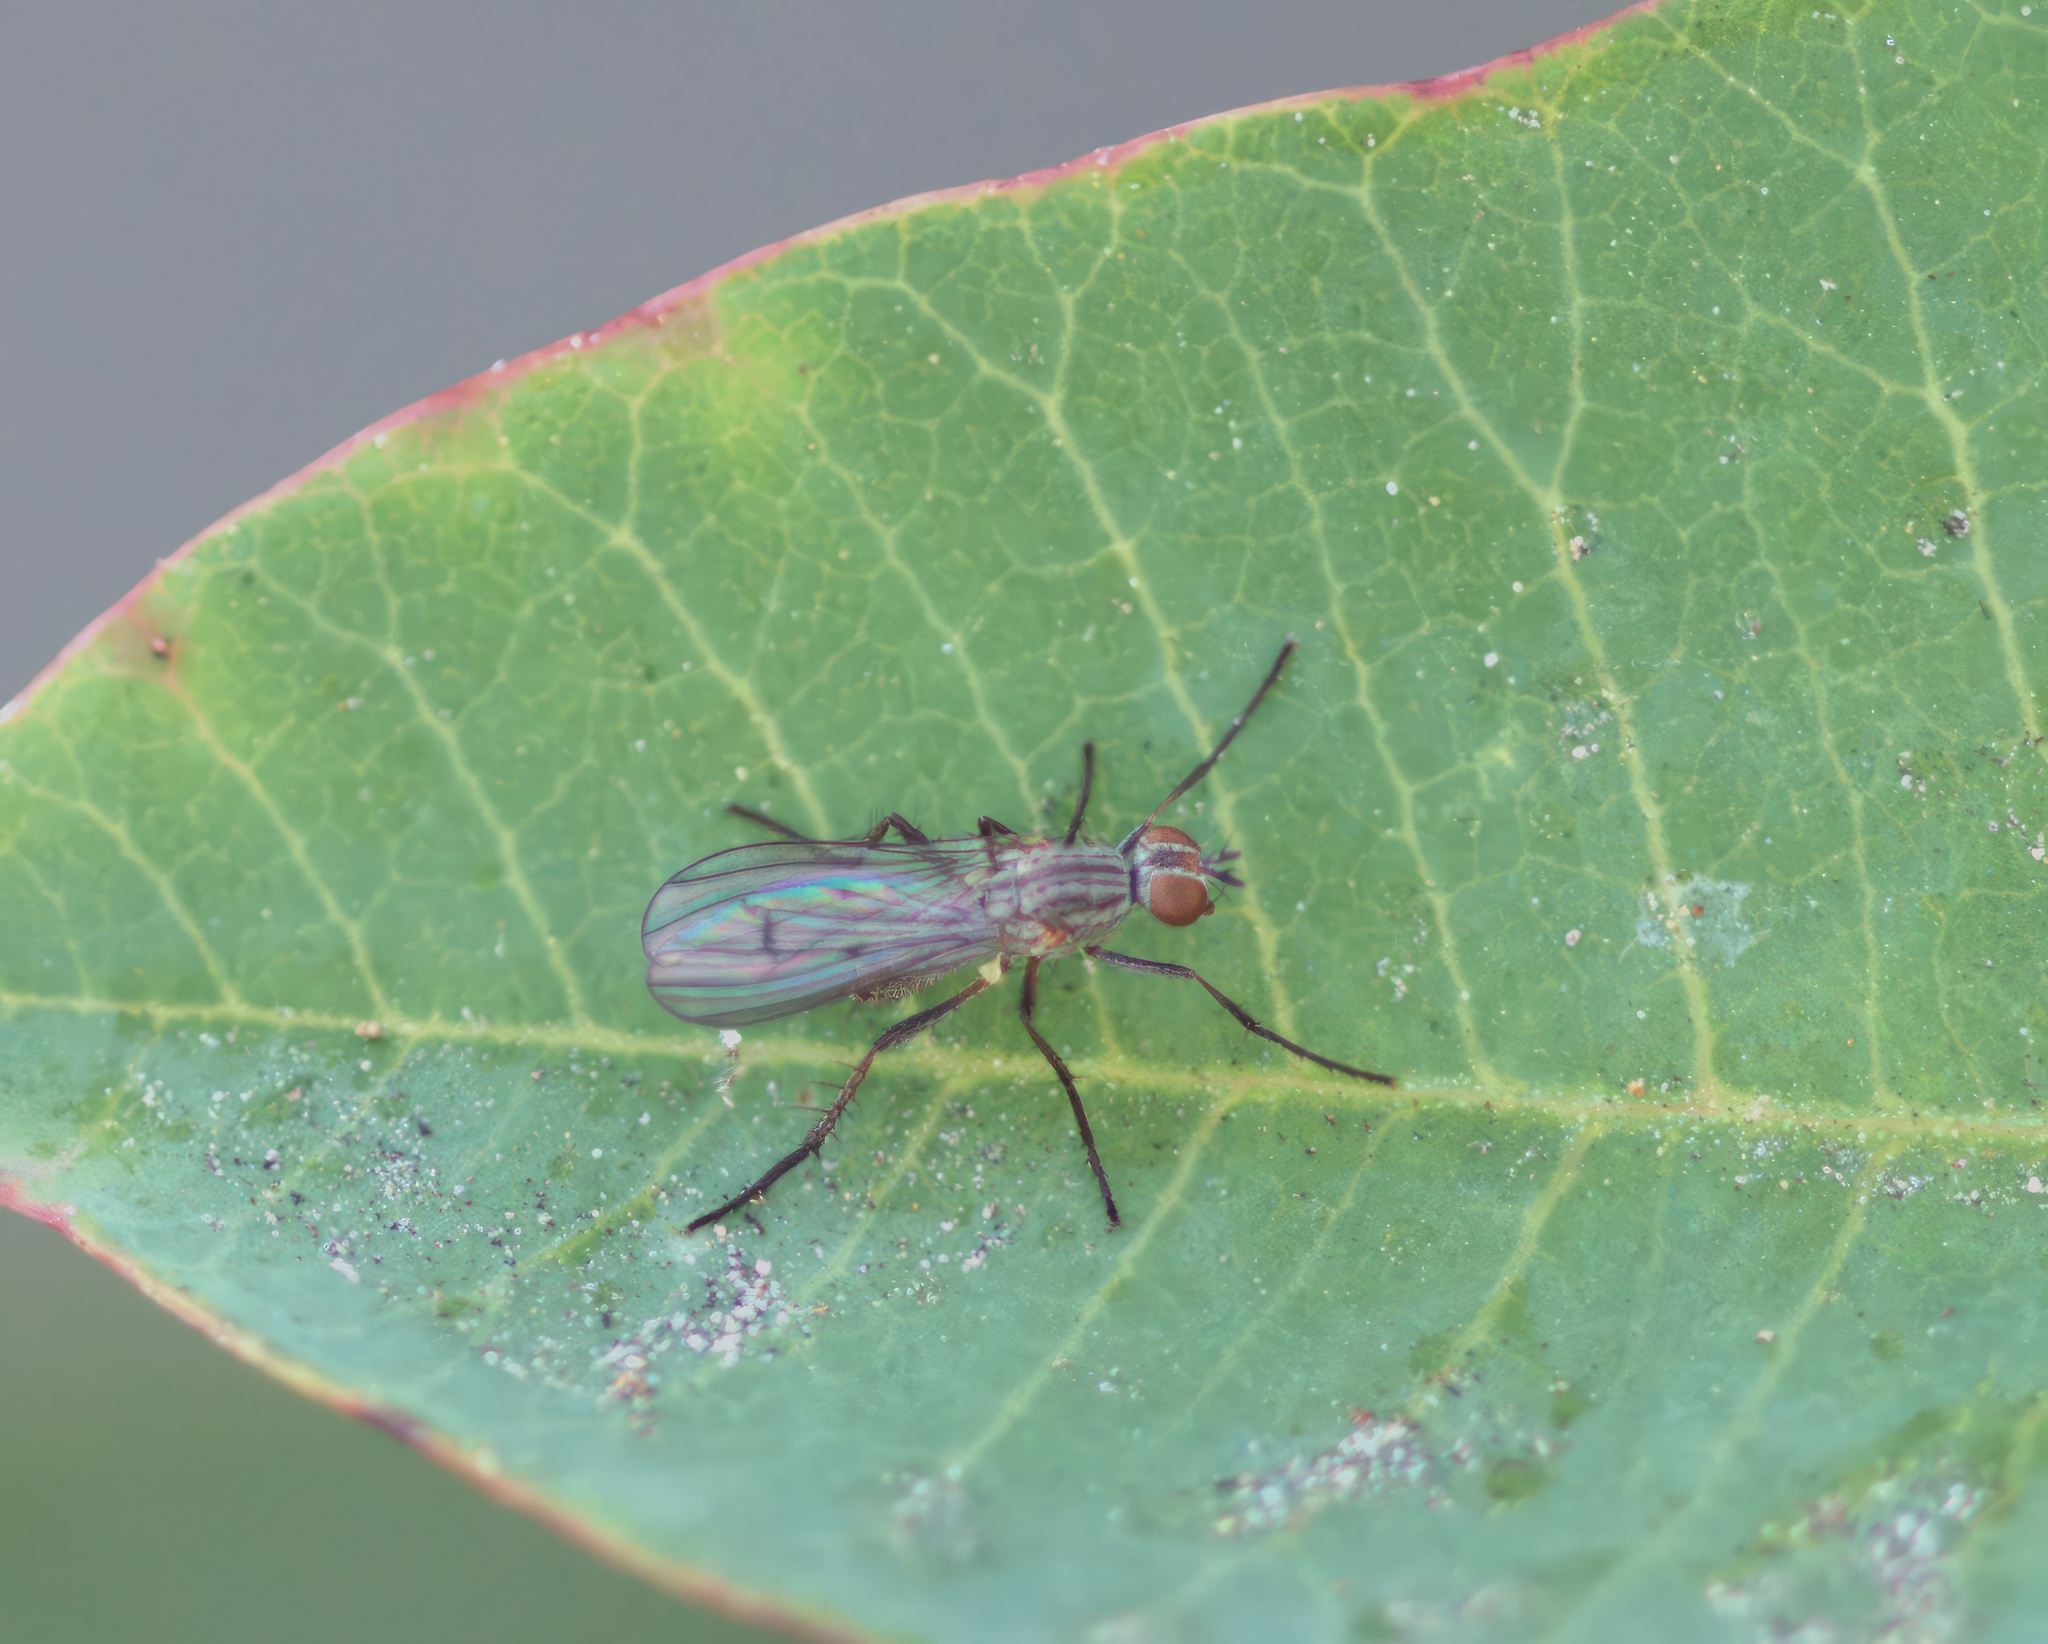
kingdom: Animalia
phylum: Arthropoda
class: Insecta
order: Diptera
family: Anthomyiidae
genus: Anthomyia
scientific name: Anthomyia obscuripennis
